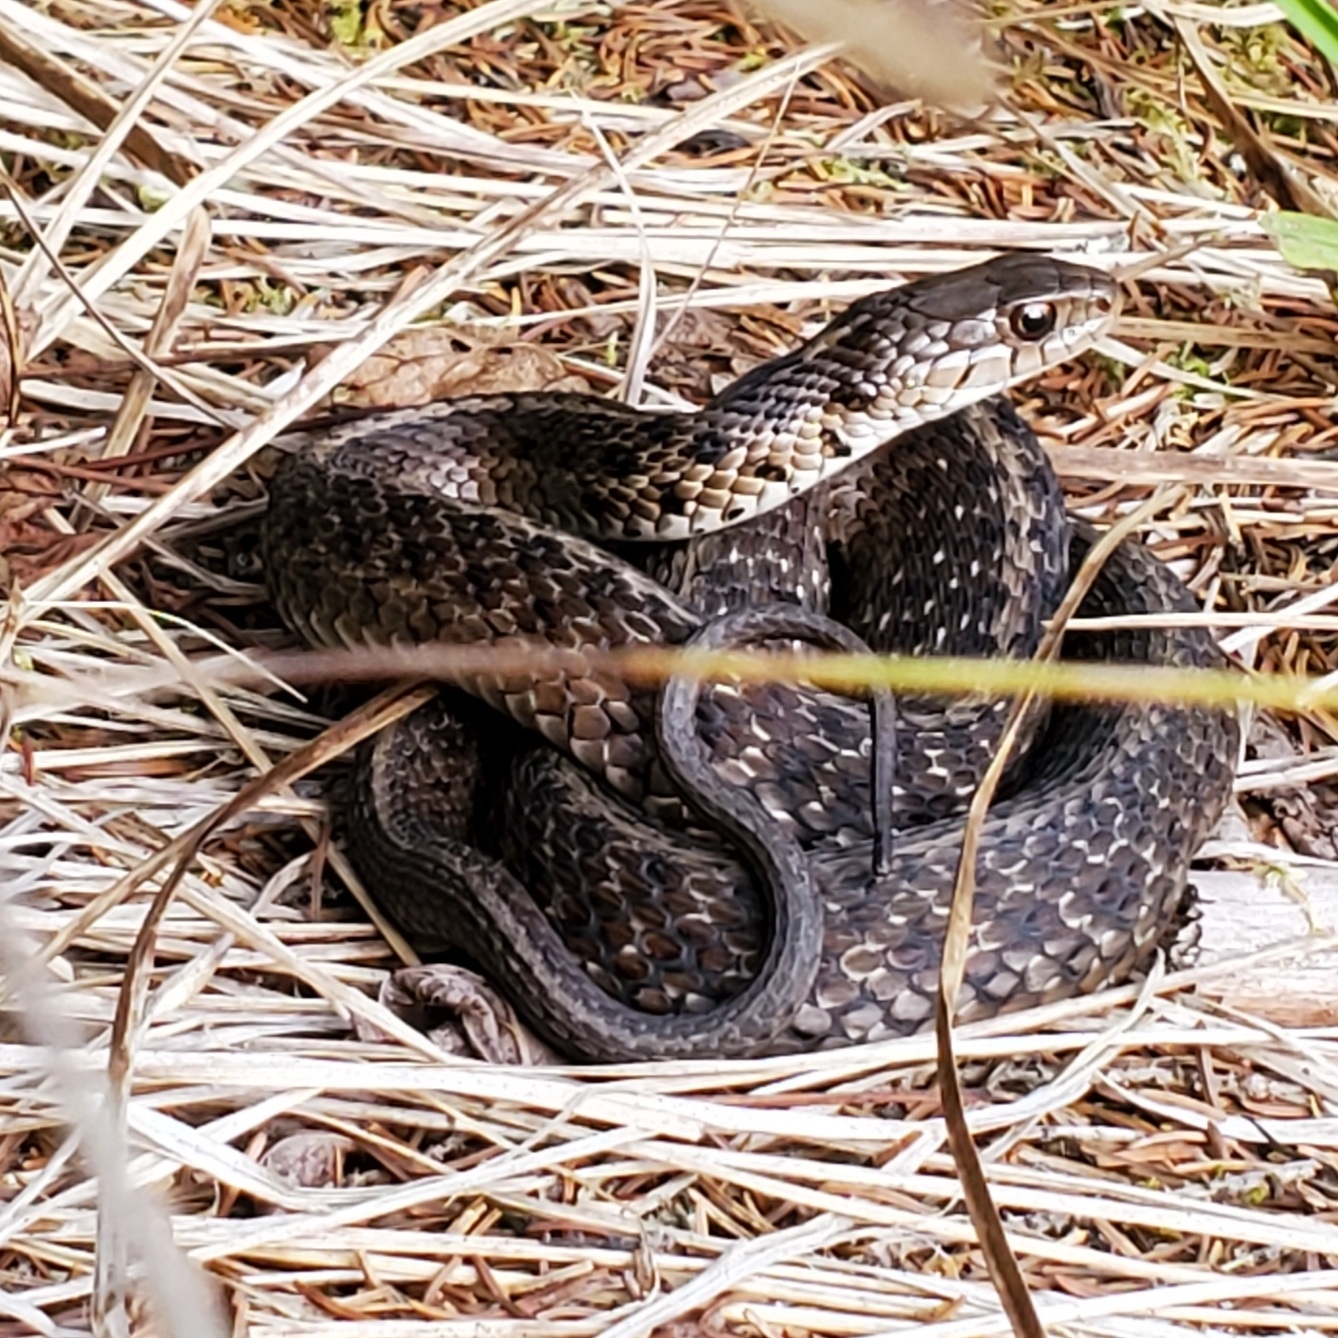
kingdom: Animalia
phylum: Chordata
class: Squamata
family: Colubridae
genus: Thamnophis
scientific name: Thamnophis sirtalis
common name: Common garter snake
